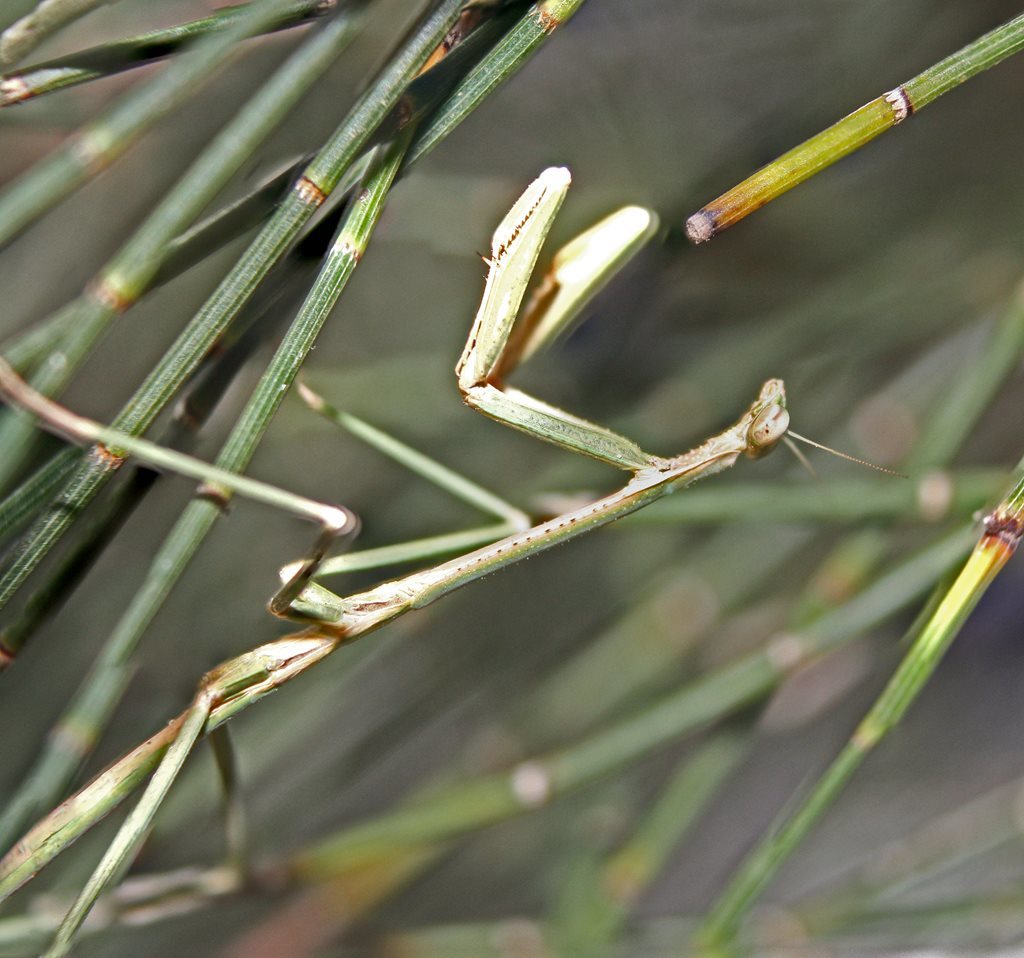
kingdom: Animalia
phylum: Arthropoda
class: Insecta
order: Mantodea
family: Mantidae
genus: Archimantis
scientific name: Archimantis latistyla
